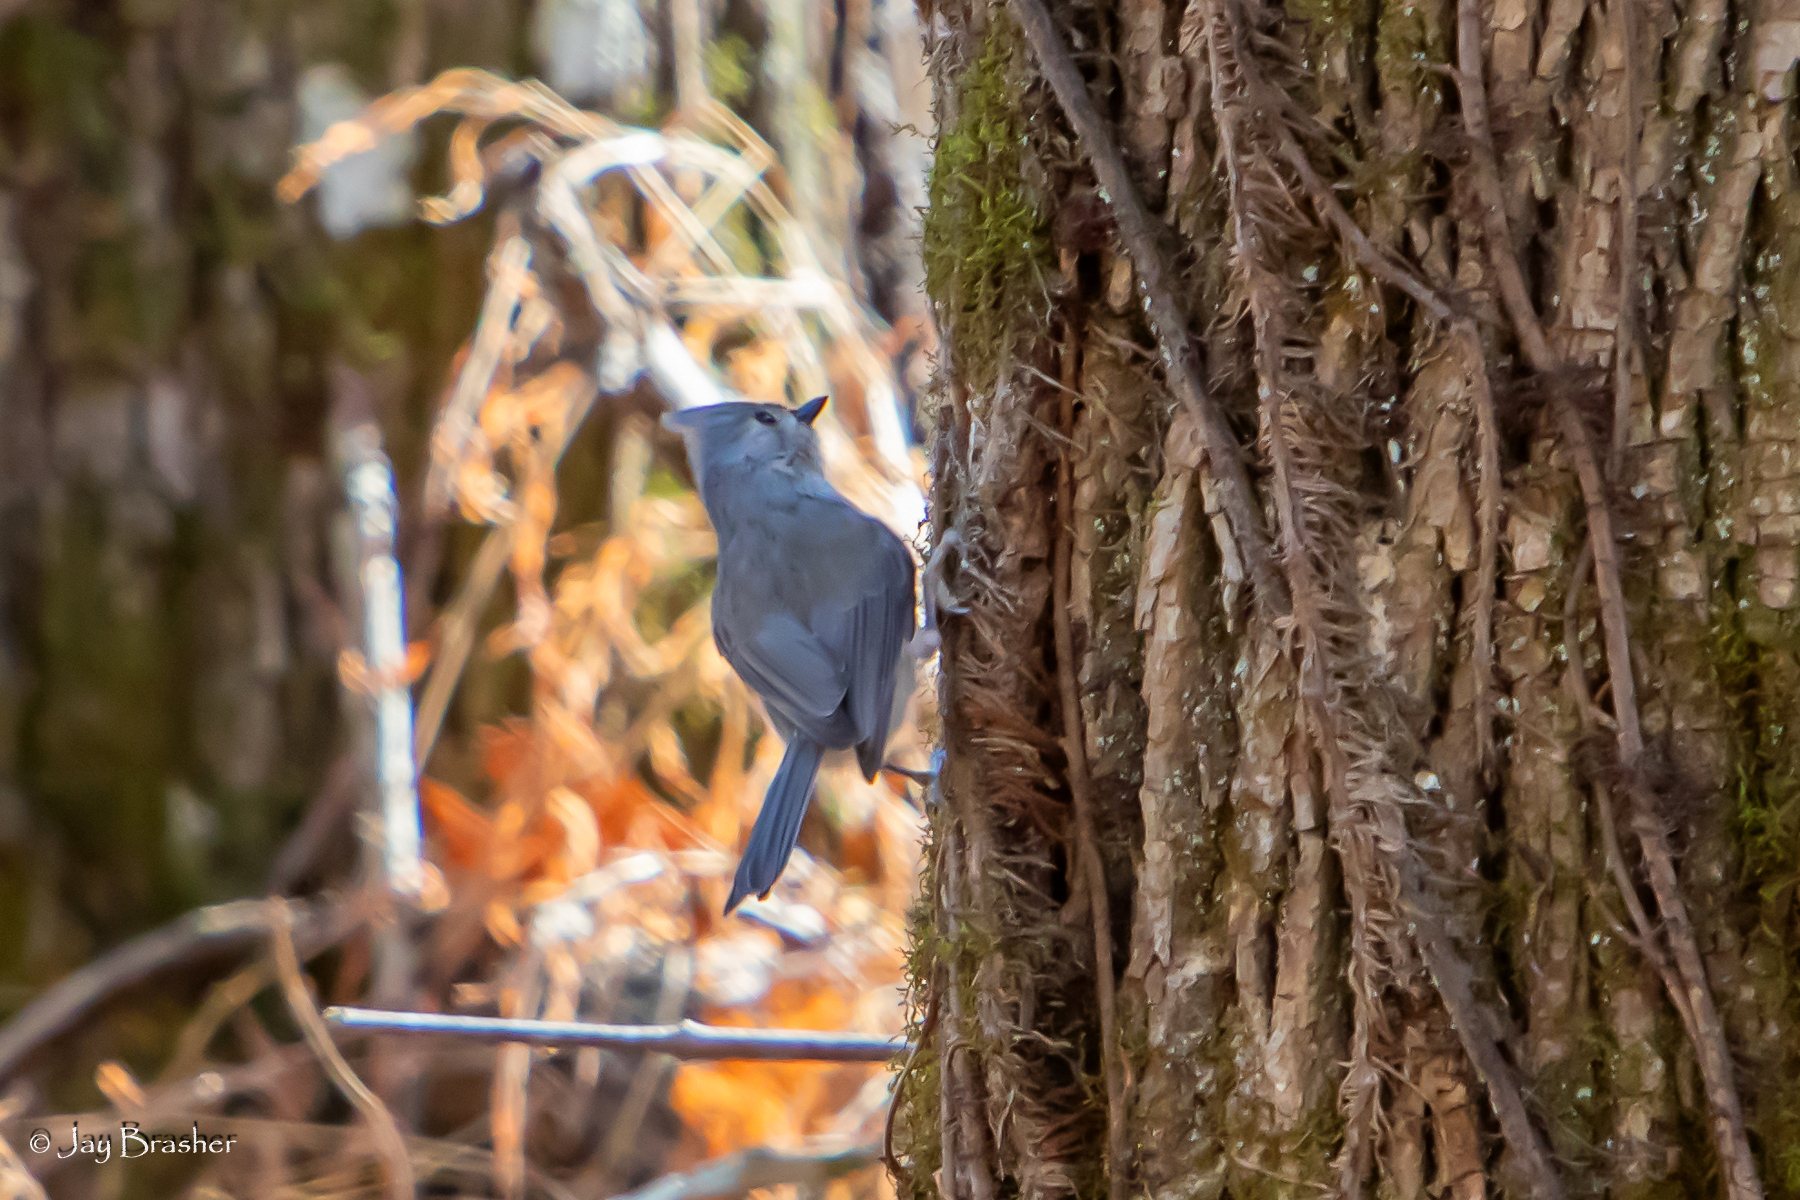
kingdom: Animalia
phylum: Chordata
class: Aves
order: Passeriformes
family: Paridae
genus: Baeolophus
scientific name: Baeolophus bicolor
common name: Tufted titmouse
